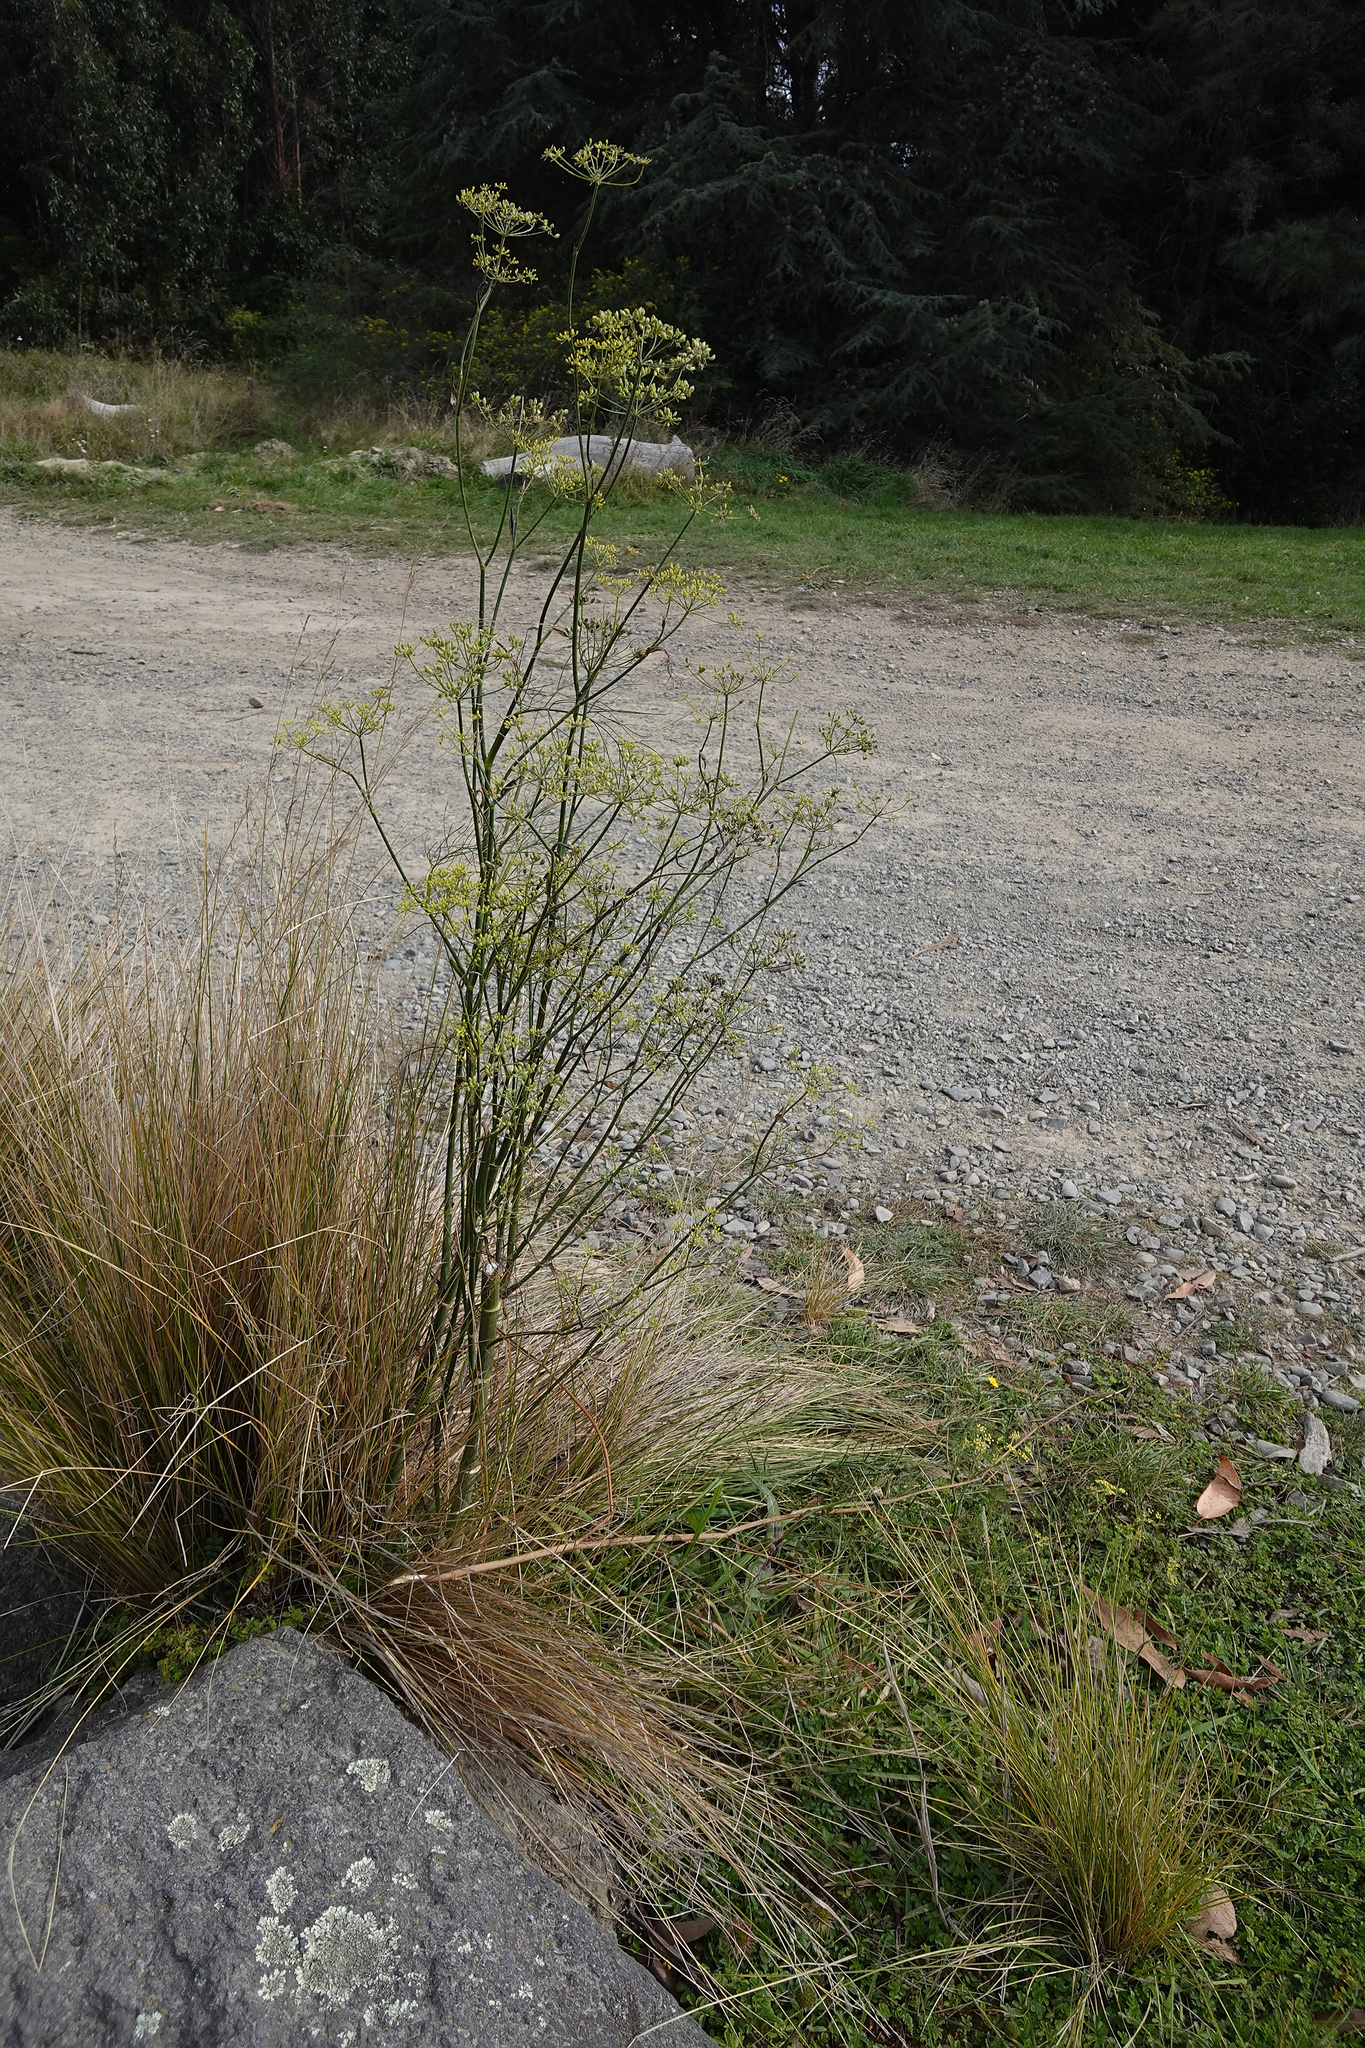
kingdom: Plantae
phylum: Tracheophyta
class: Magnoliopsida
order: Apiales
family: Apiaceae
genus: Foeniculum
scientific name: Foeniculum vulgare
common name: Fennel
